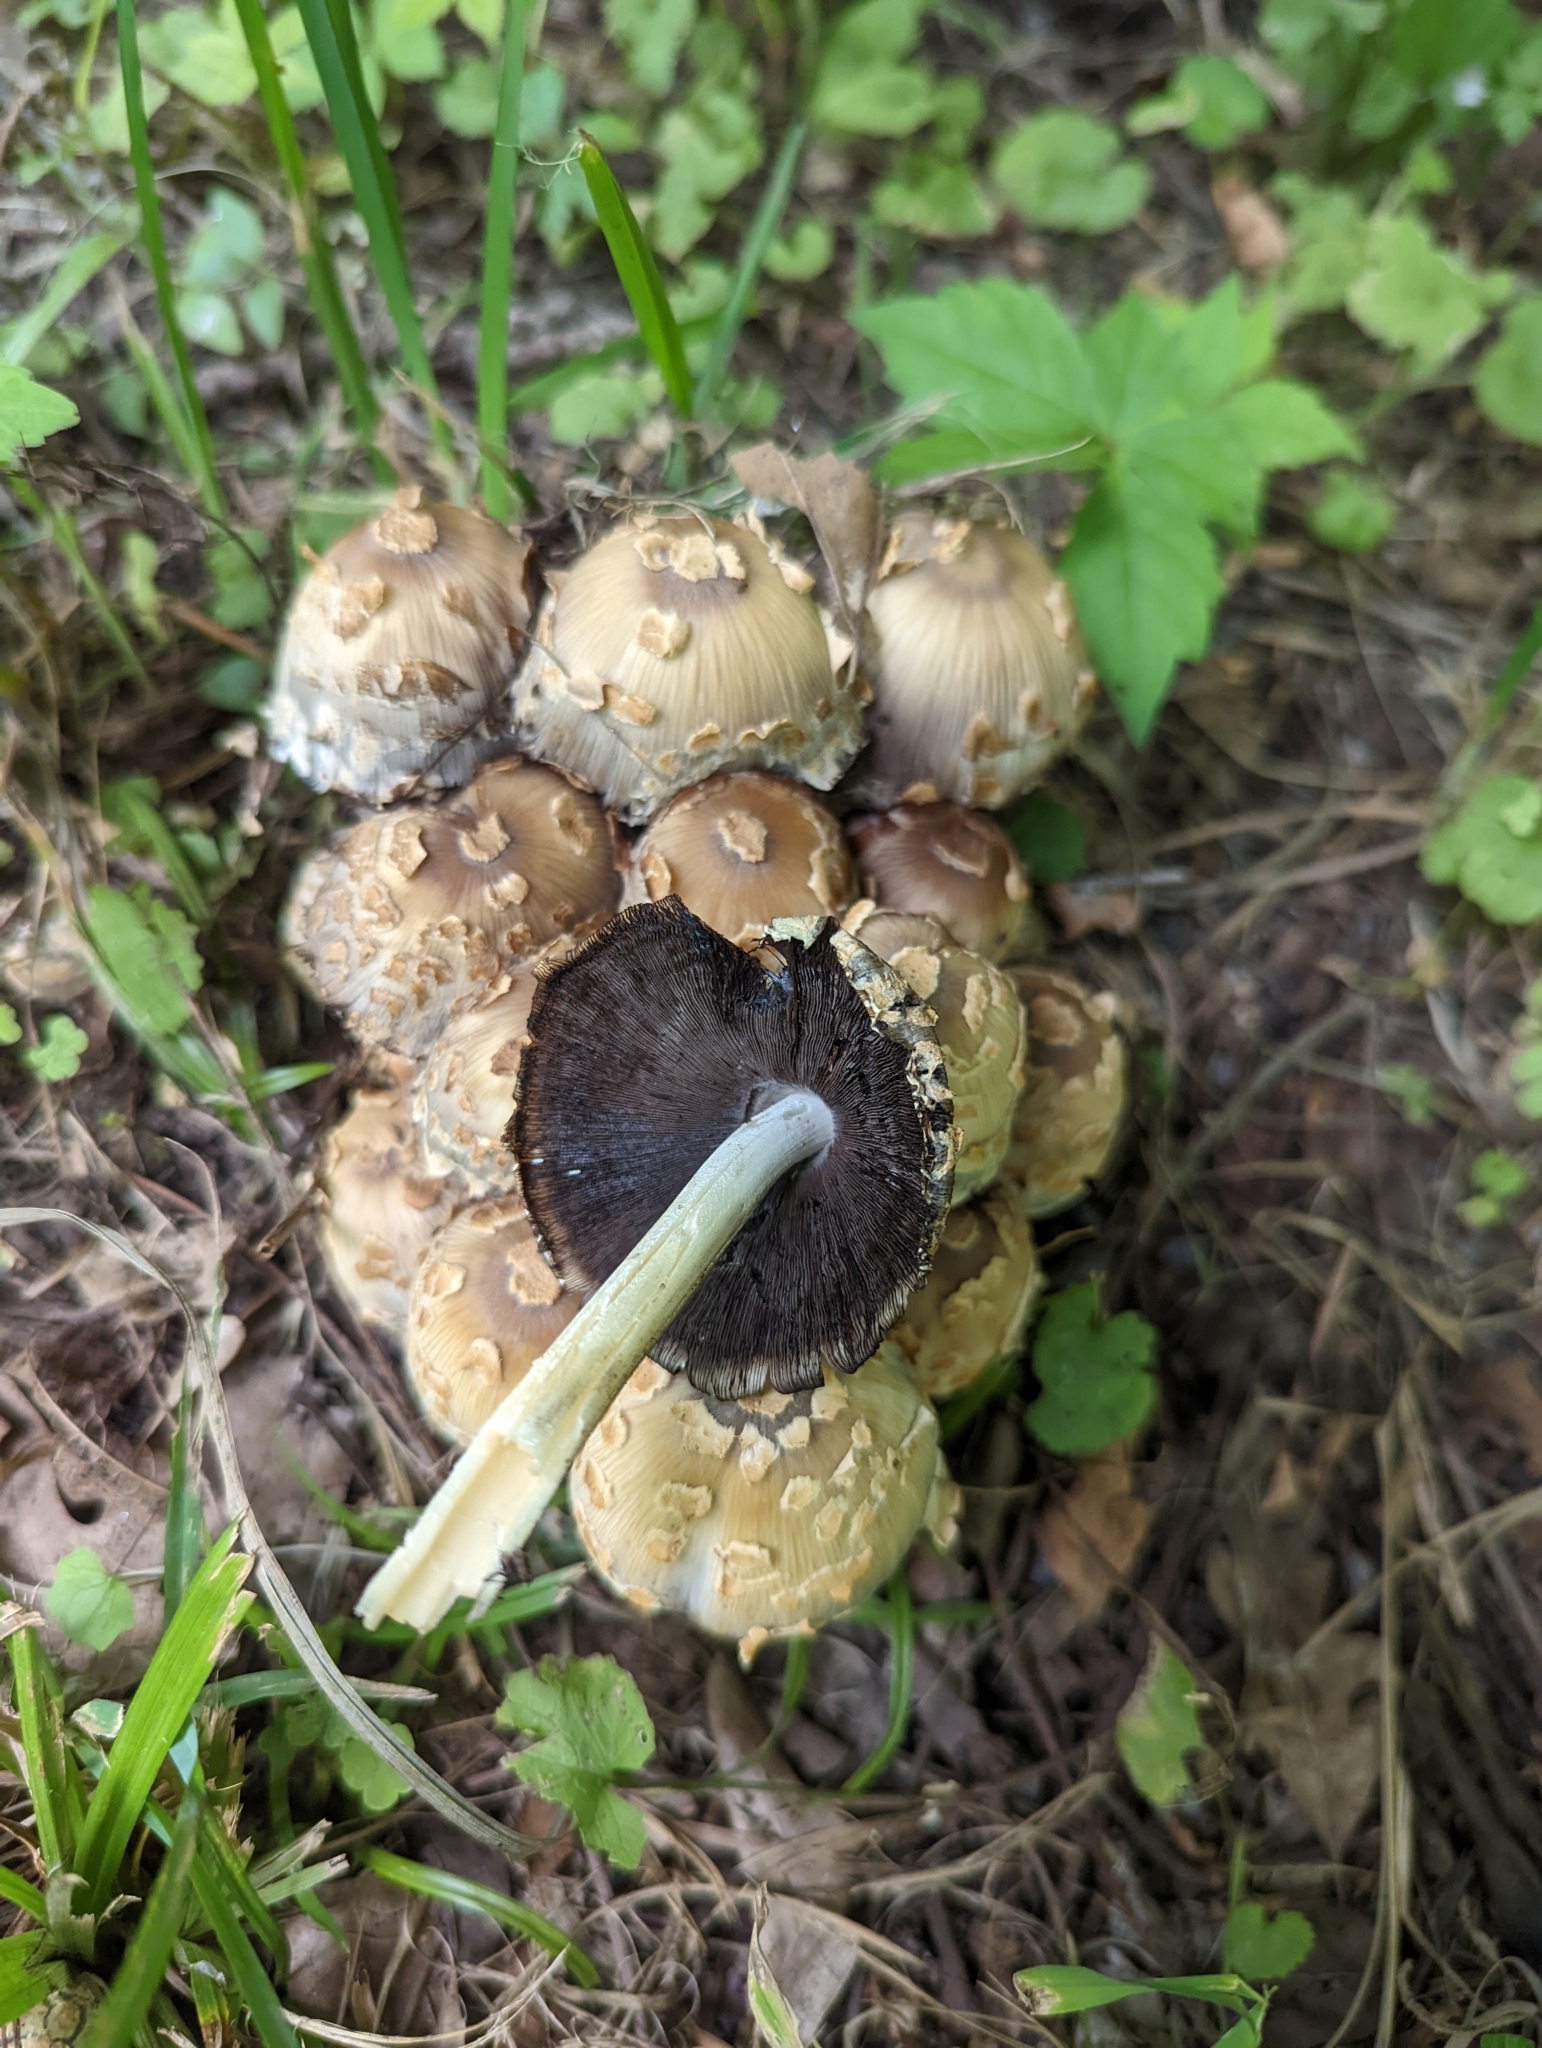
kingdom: Fungi
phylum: Basidiomycota
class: Agaricomycetes
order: Agaricales
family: Psathyrellaceae
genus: Coprinopsis
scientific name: Coprinopsis variegata
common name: Scaly ink cap
